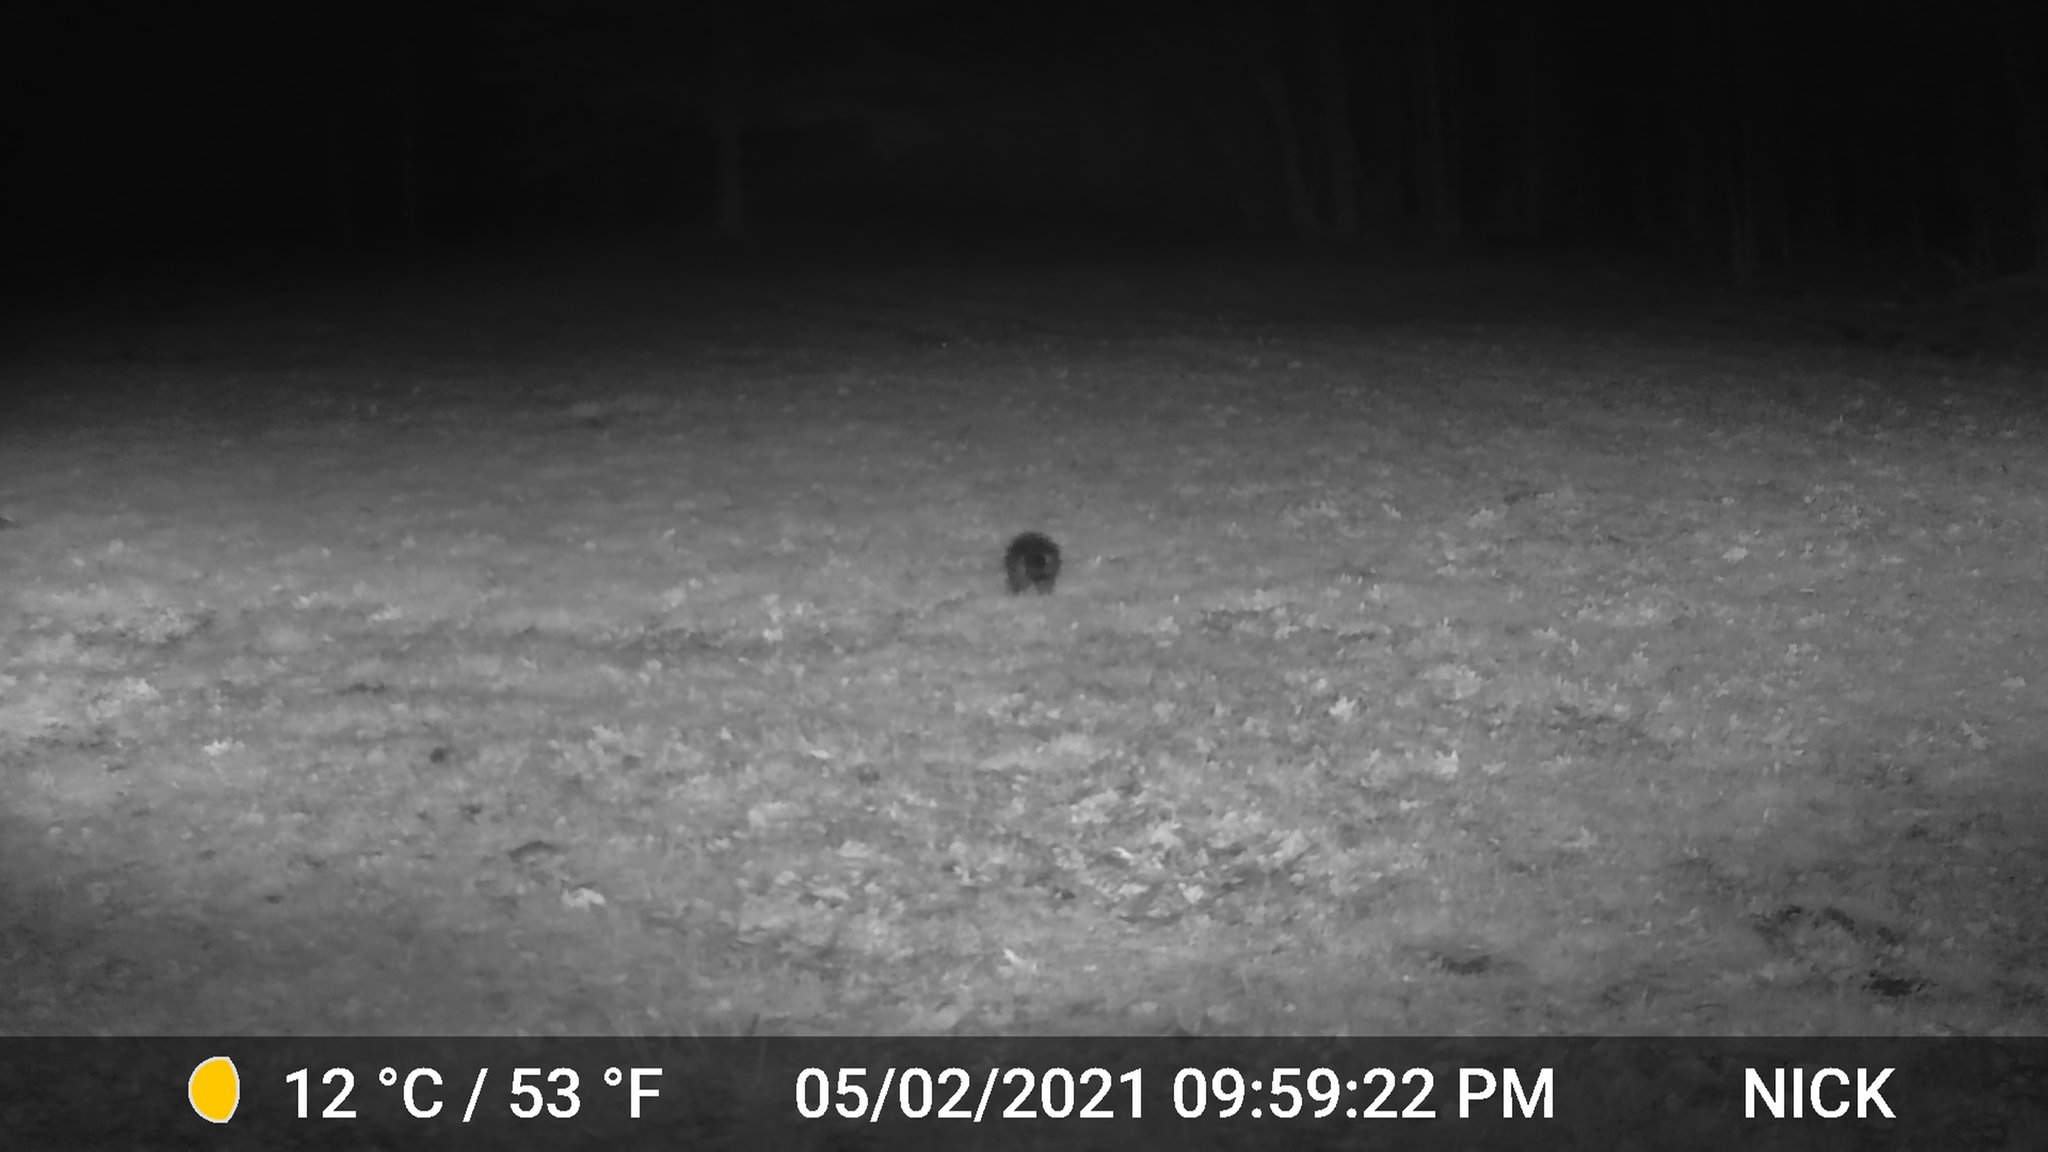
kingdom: Animalia
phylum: Chordata
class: Mammalia
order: Rodentia
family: Erethizontidae
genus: Erethizon
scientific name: Erethizon dorsatus
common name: North american porcupine
